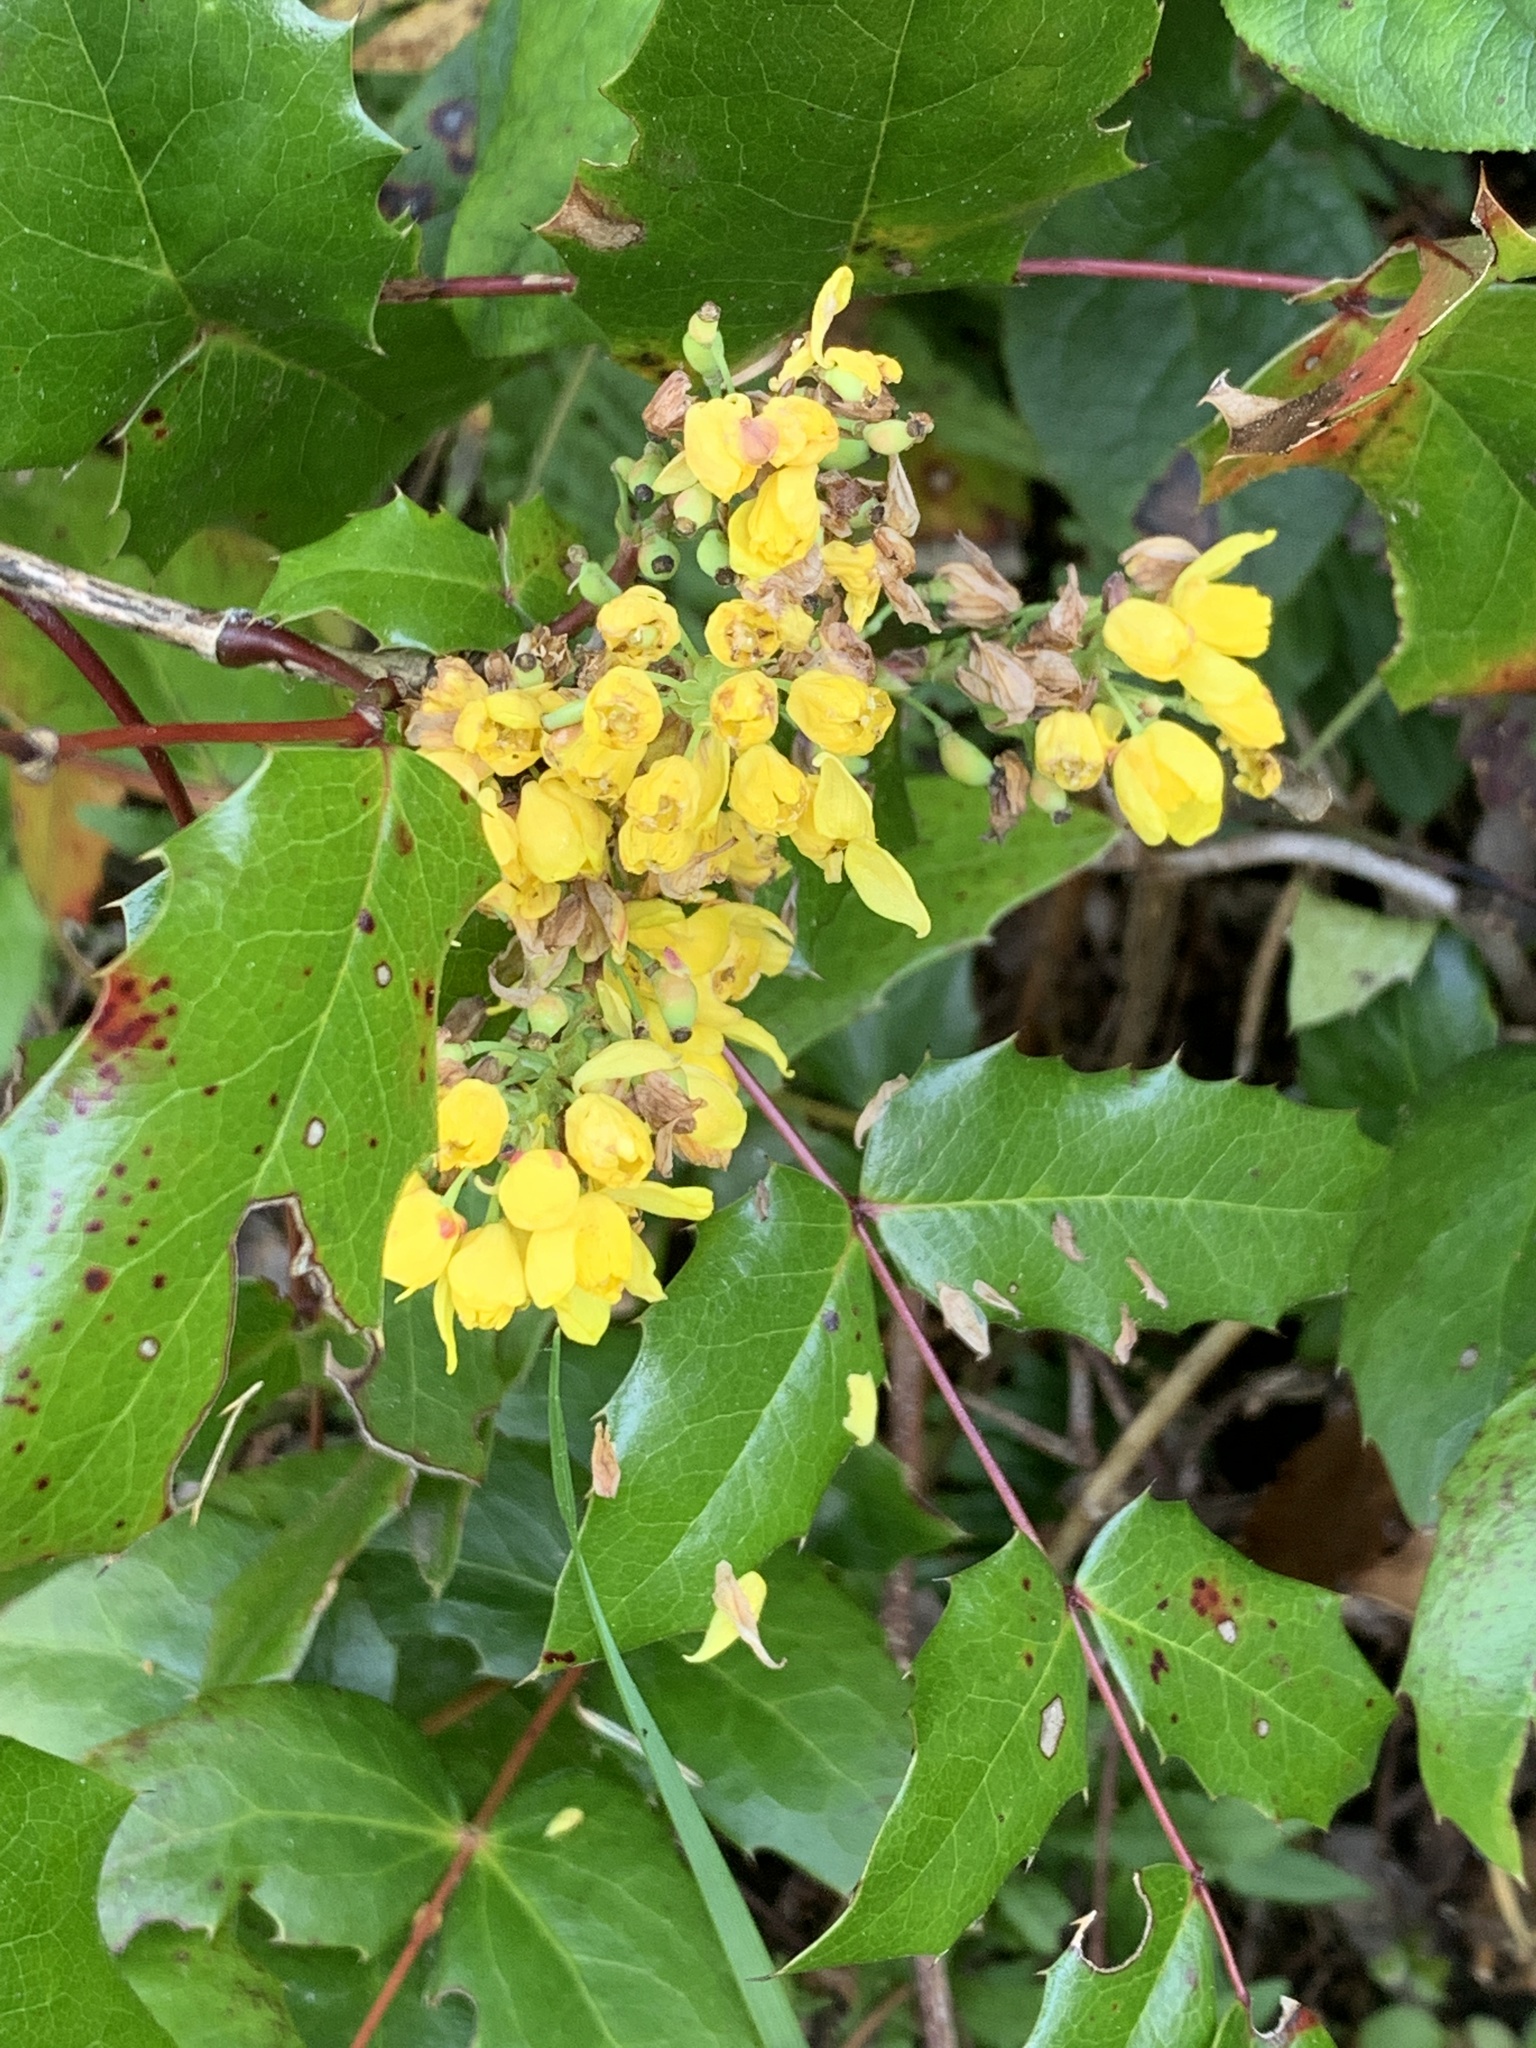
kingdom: Plantae
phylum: Tracheophyta
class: Magnoliopsida
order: Ranunculales
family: Berberidaceae
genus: Mahonia
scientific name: Mahonia aquifolium
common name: Oregon-grape
